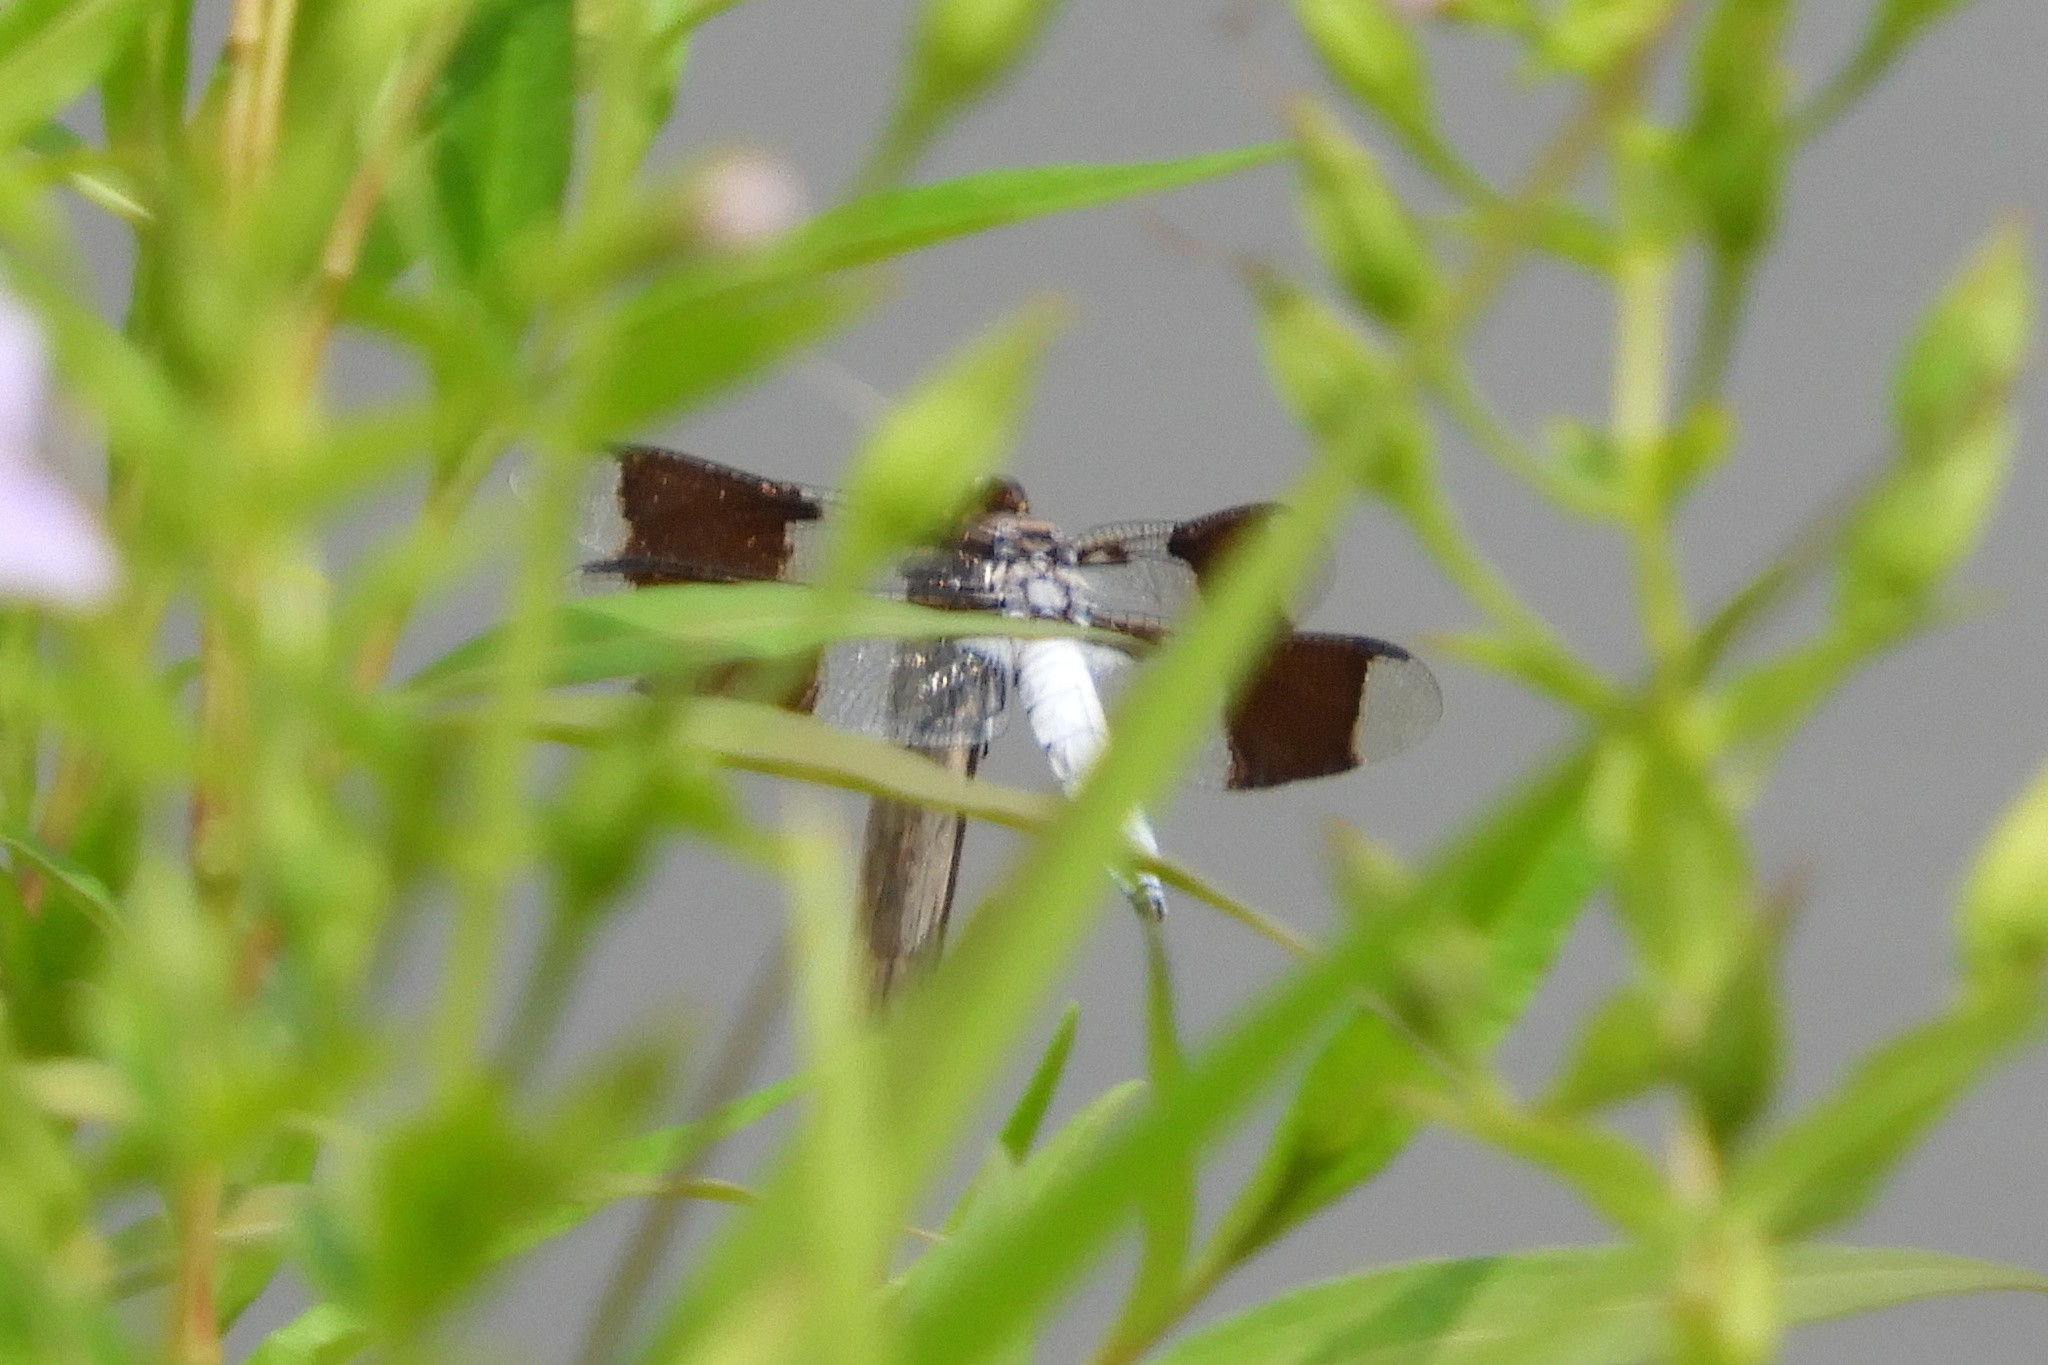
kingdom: Animalia
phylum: Arthropoda
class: Insecta
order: Odonata
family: Libellulidae
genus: Plathemis
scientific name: Plathemis lydia
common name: Common whitetail
